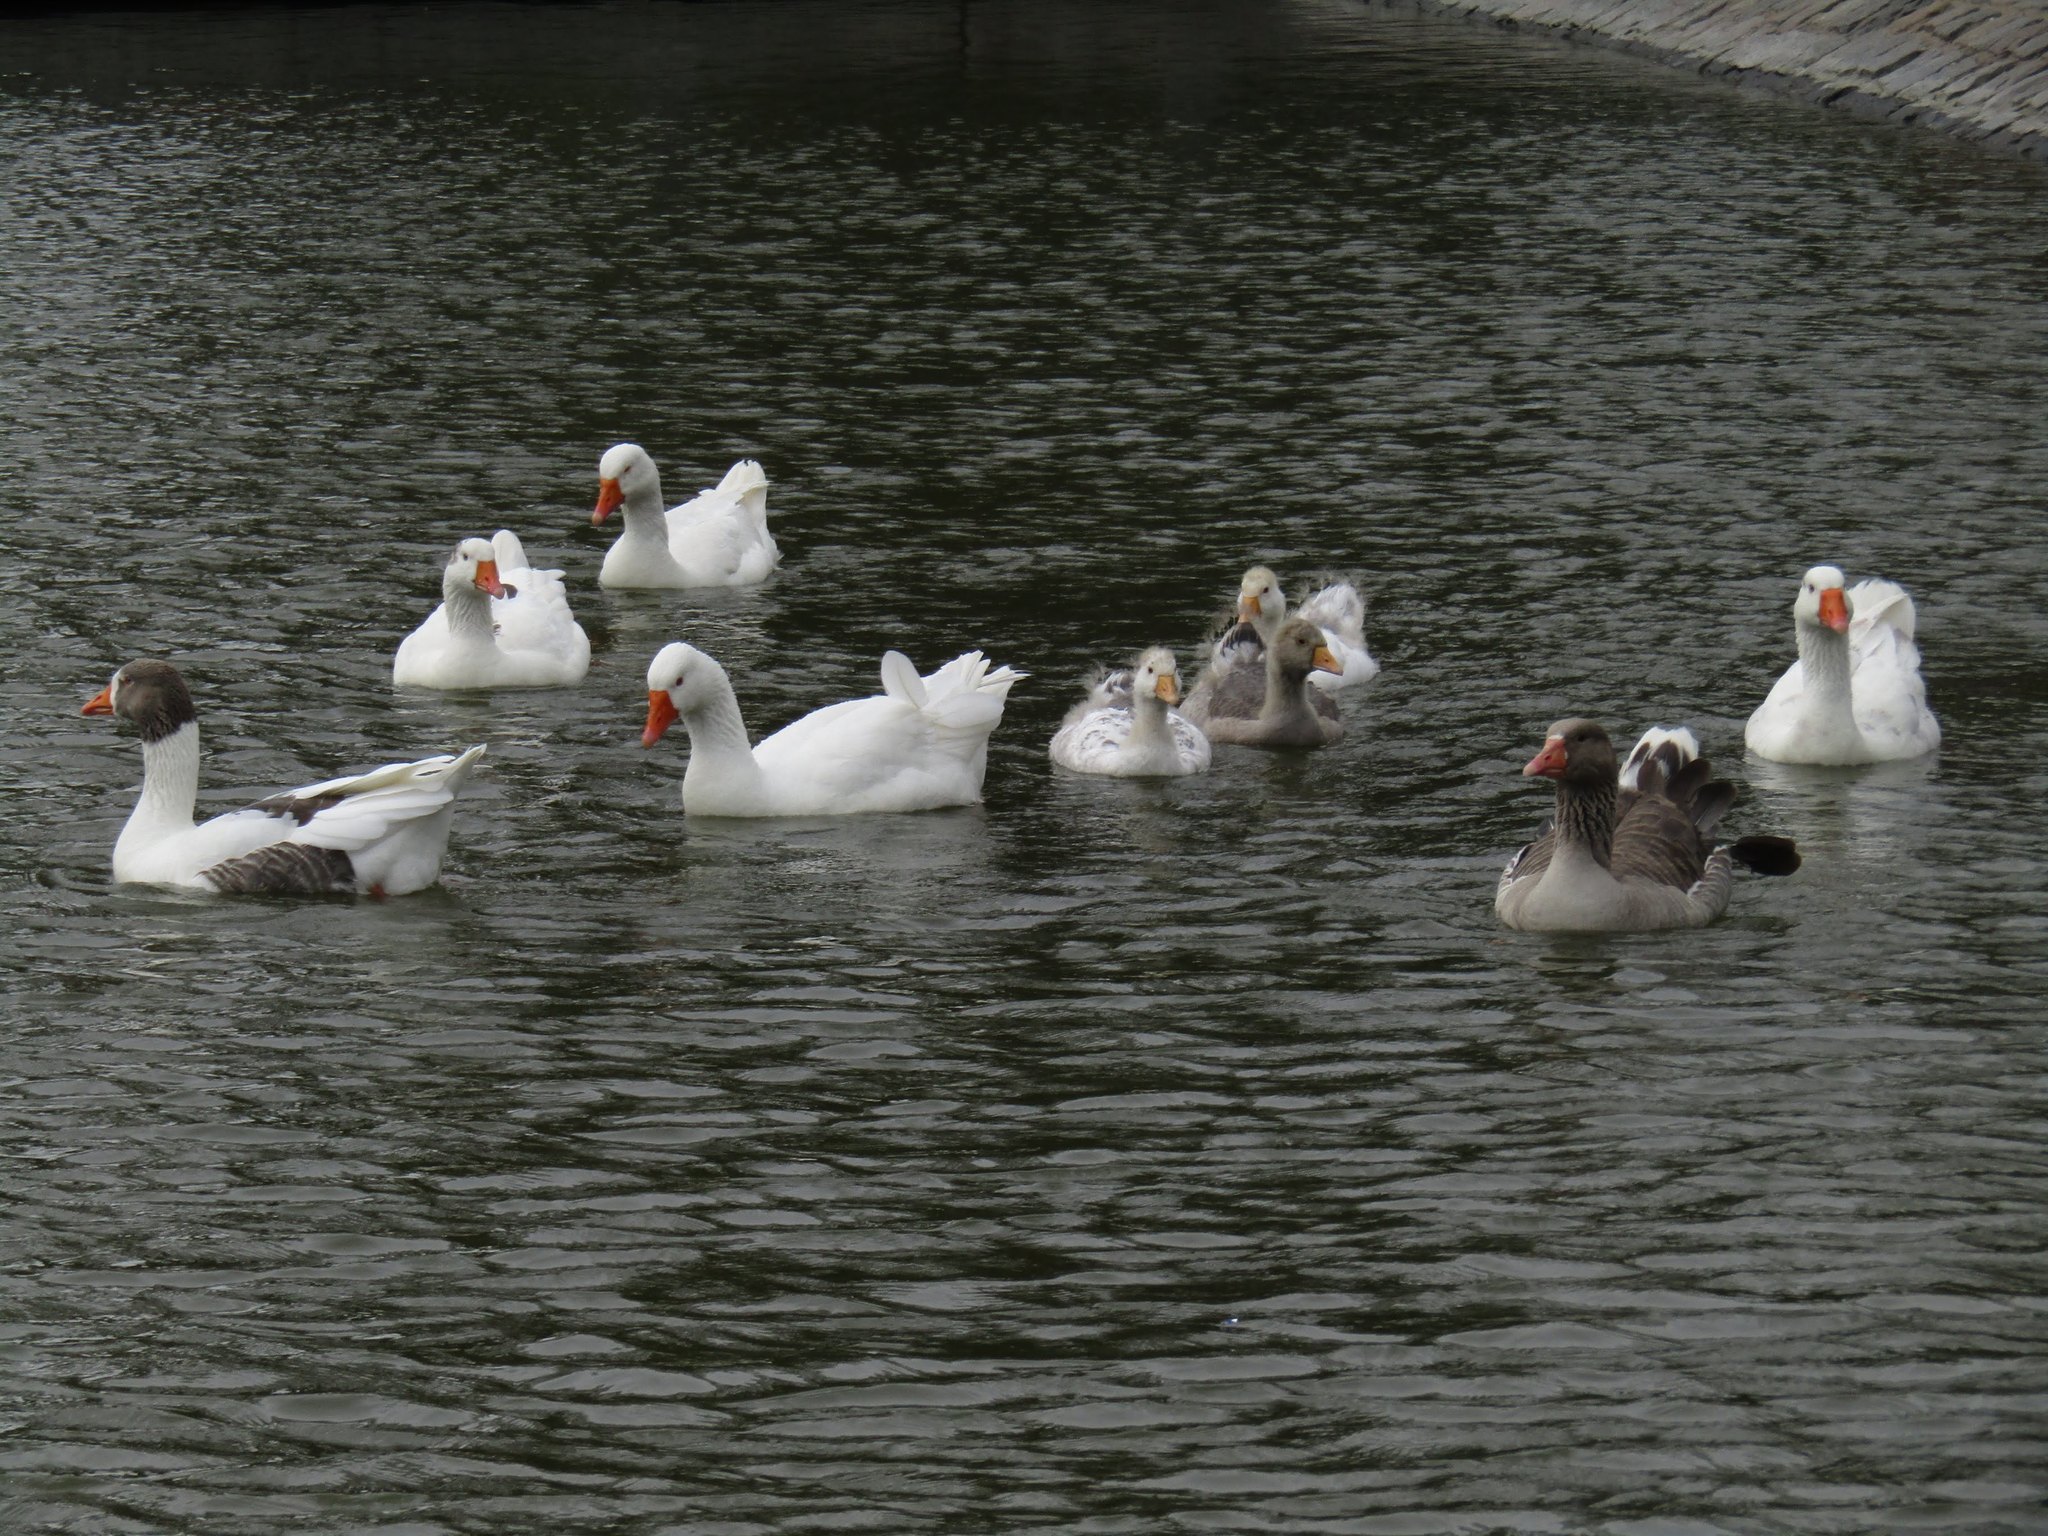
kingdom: Animalia
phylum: Chordata
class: Aves
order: Anseriformes
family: Anatidae
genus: Anser
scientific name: Anser anser
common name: Greylag goose
